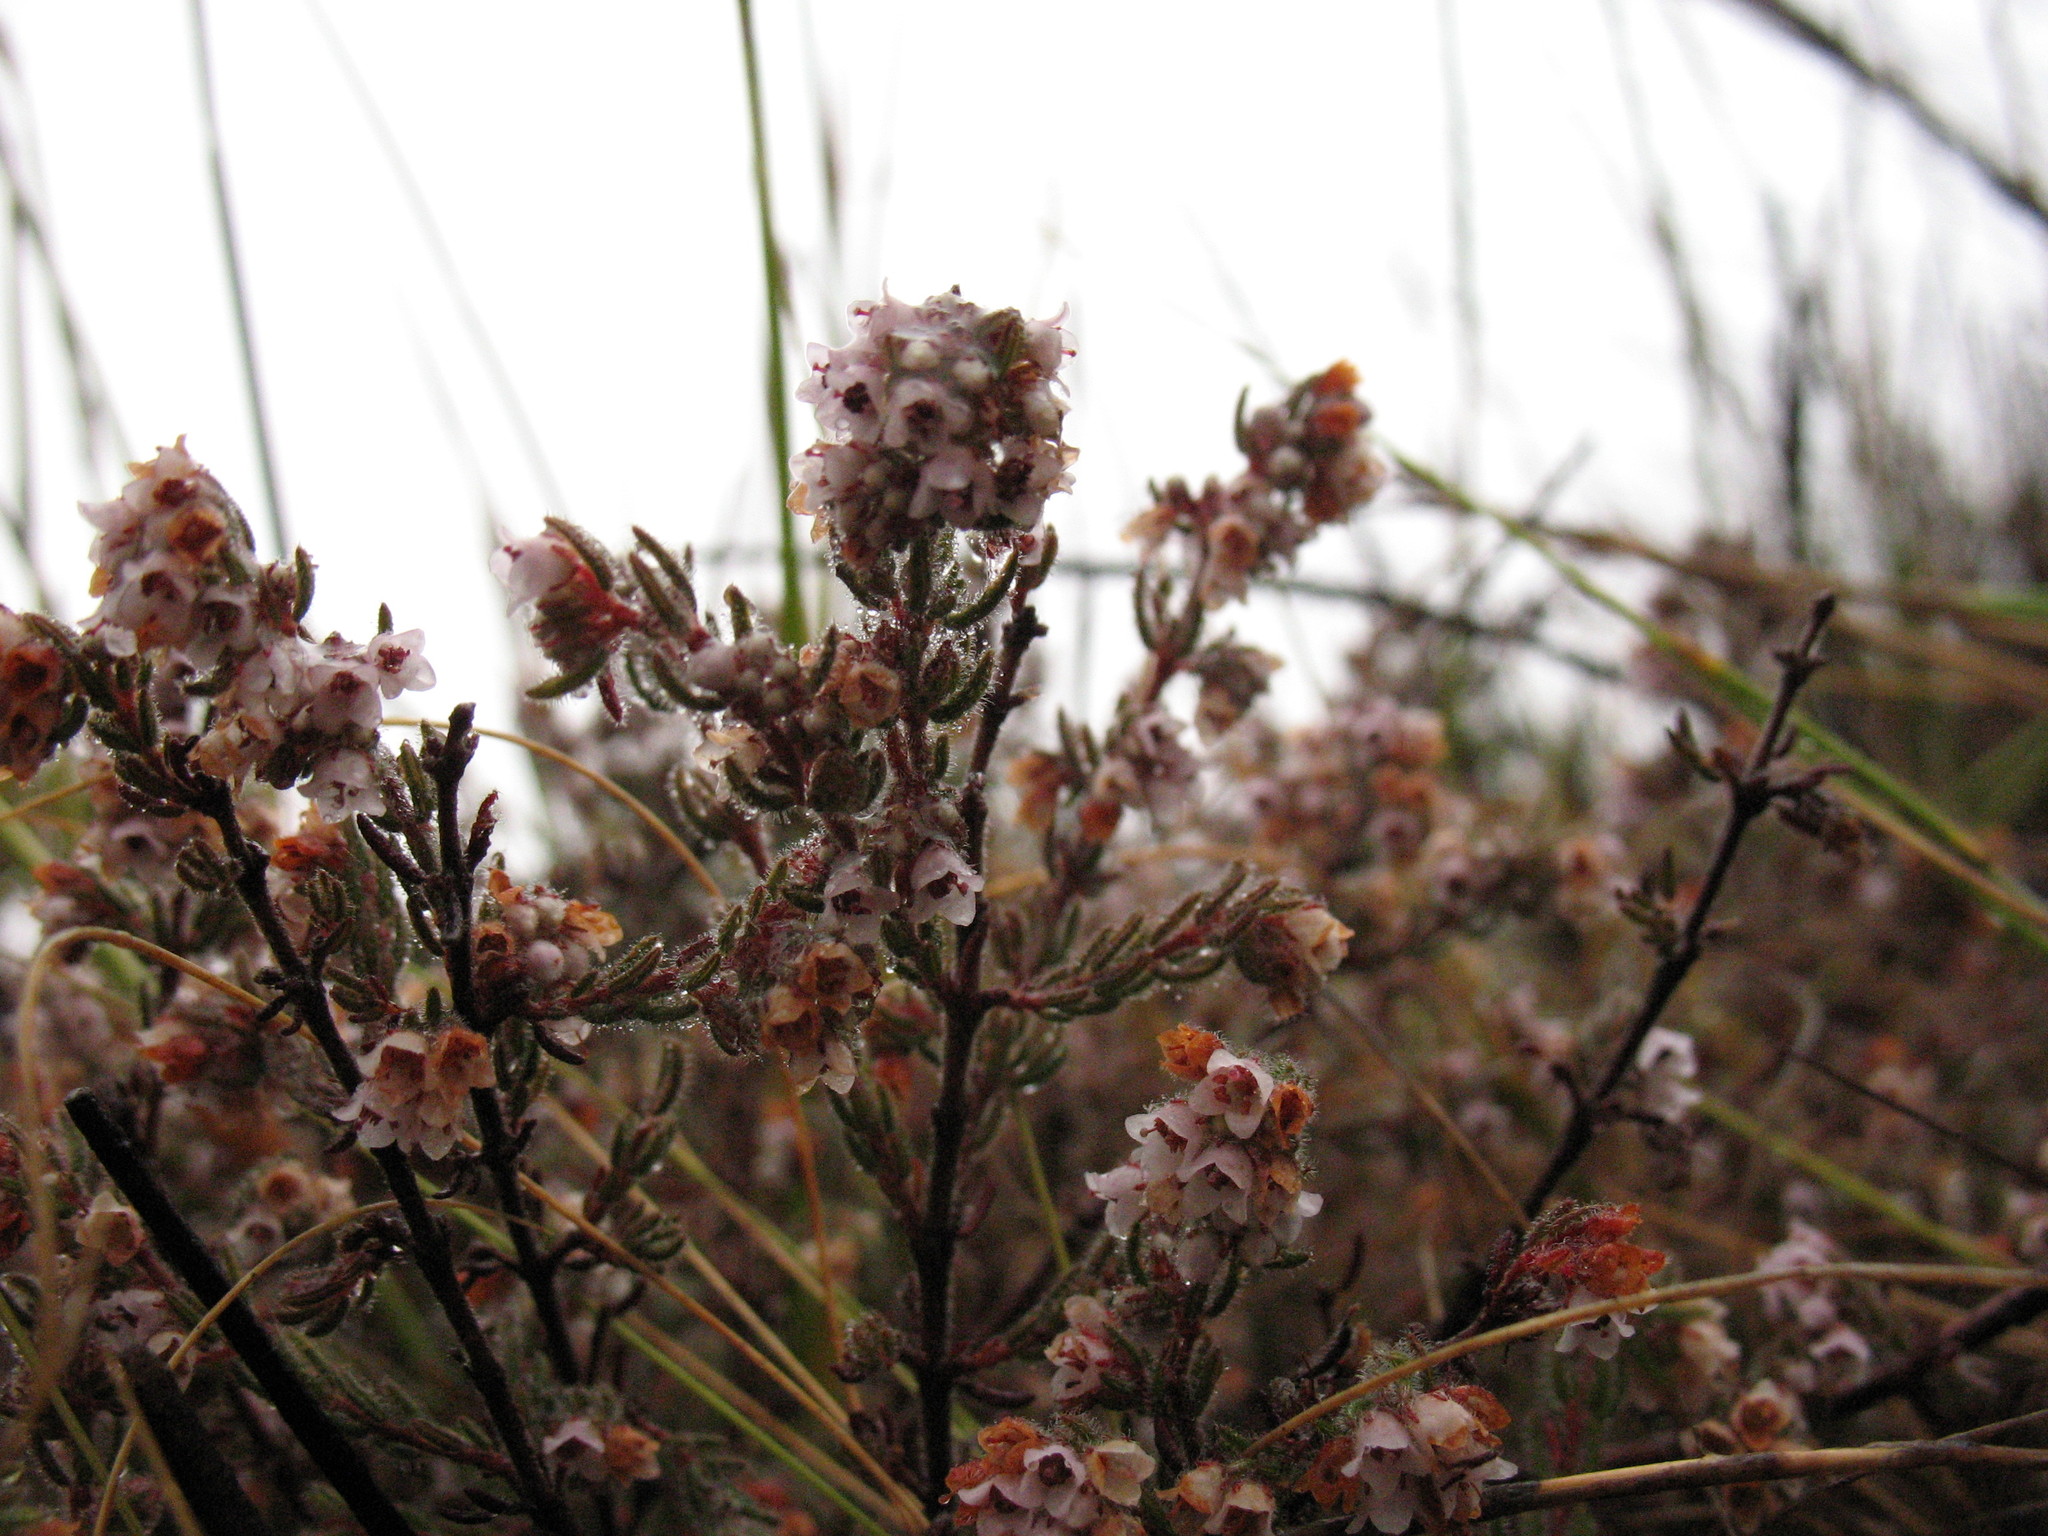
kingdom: Plantae
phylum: Tracheophyta
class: Magnoliopsida
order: Ericales
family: Ericaceae
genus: Erica
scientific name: Erica distorta
